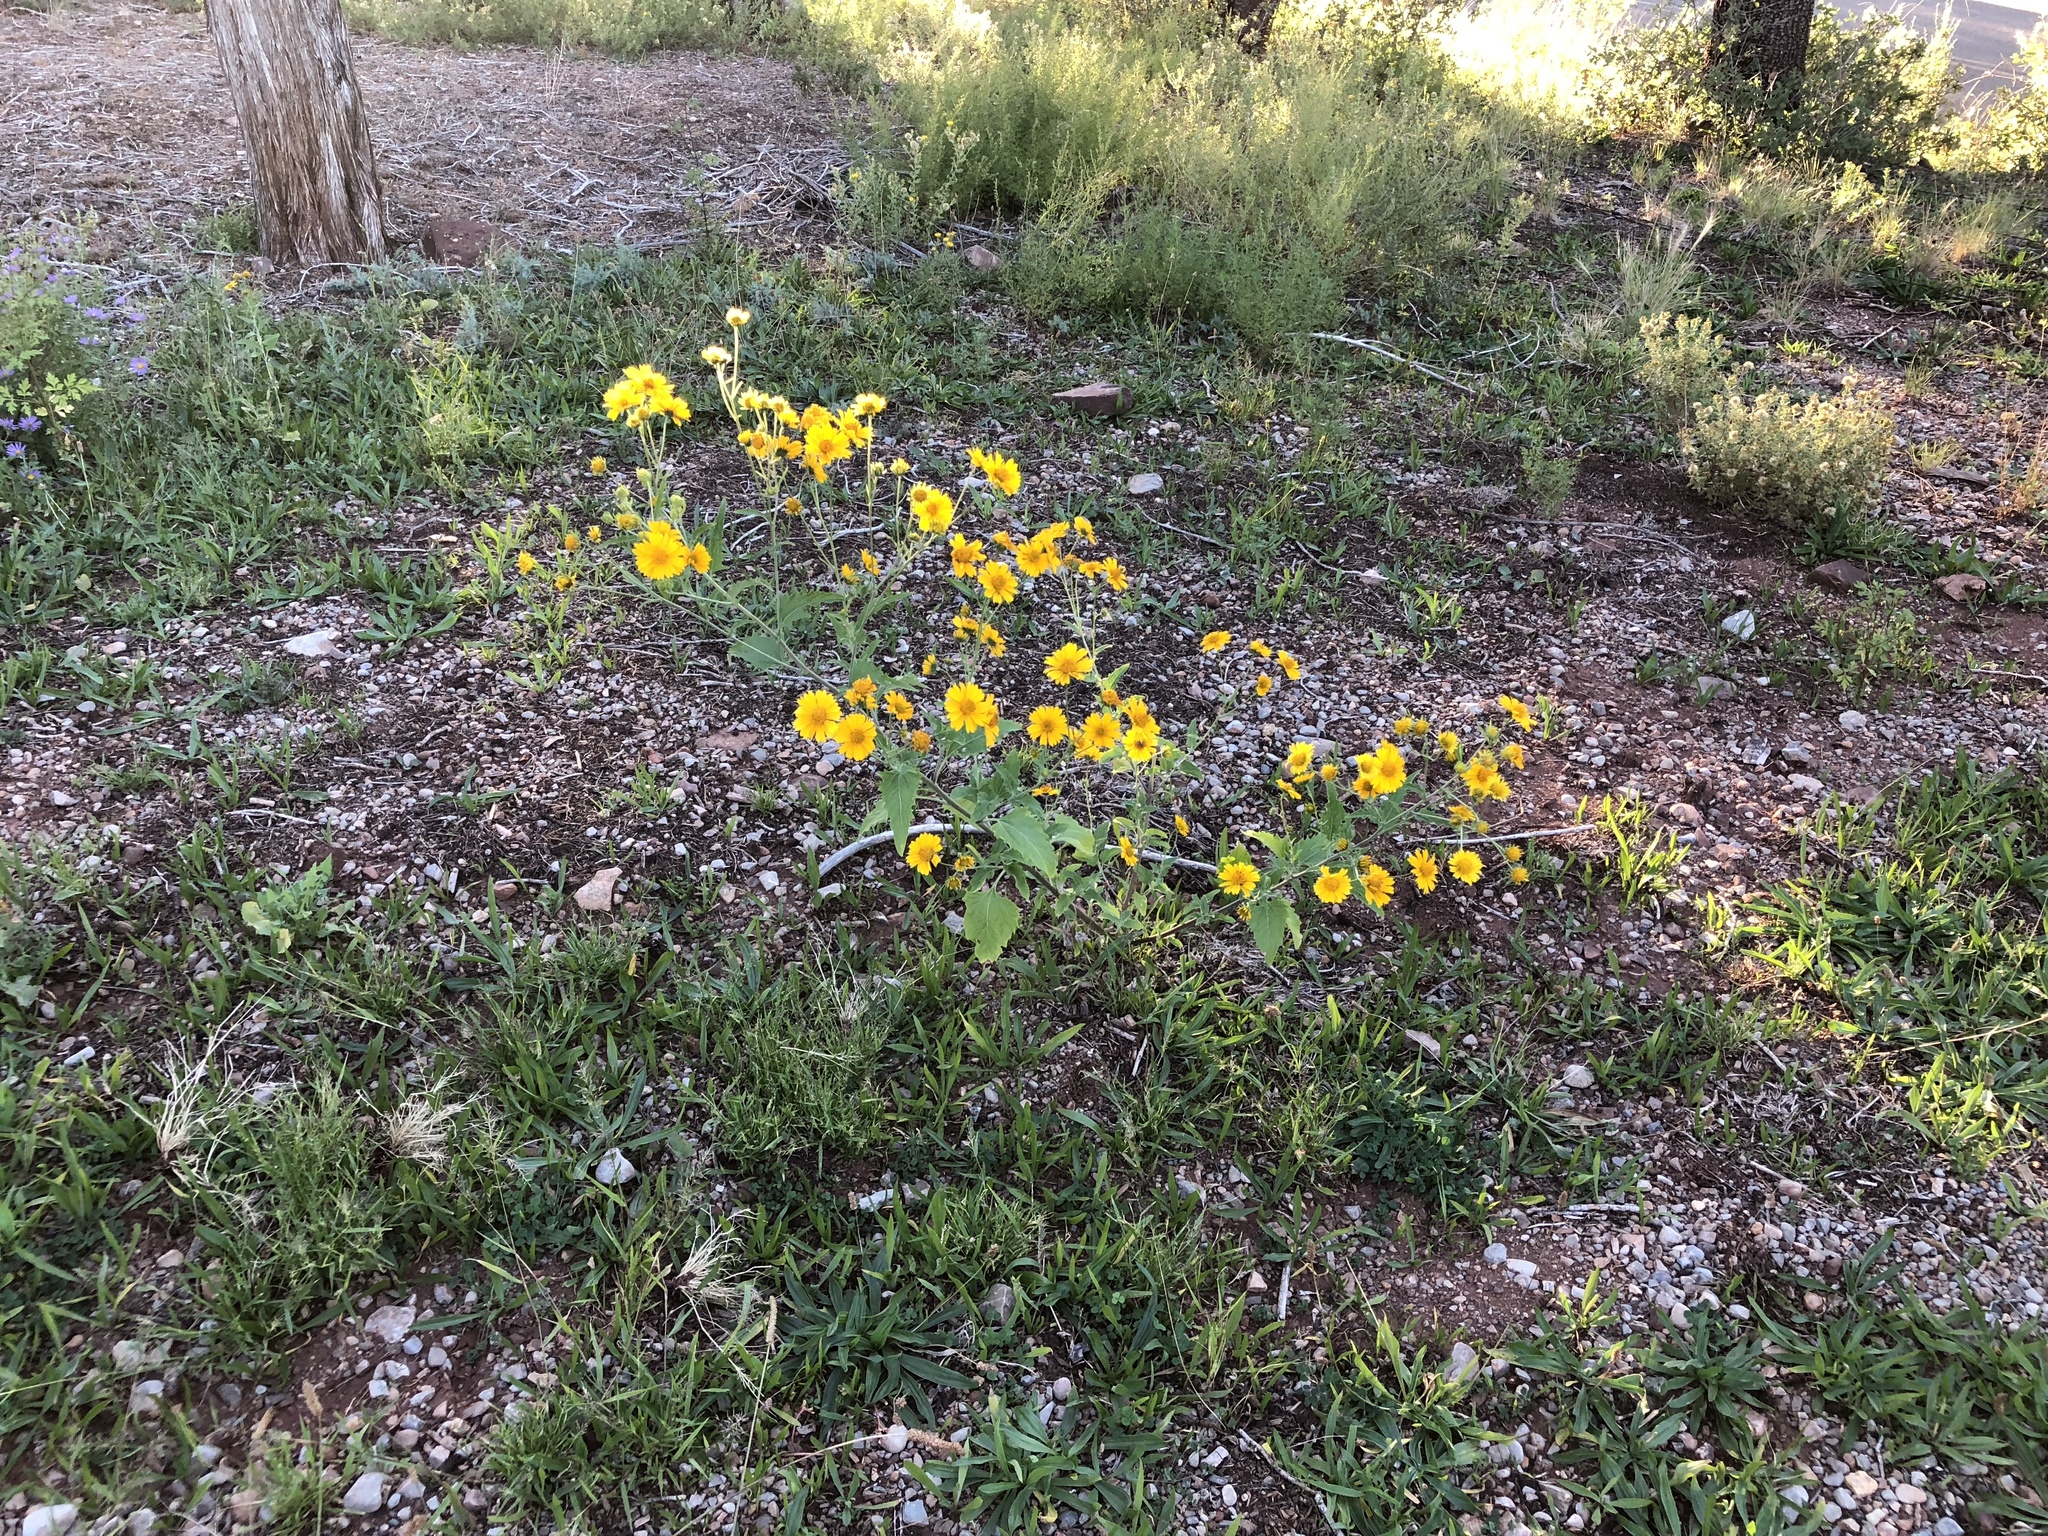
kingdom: Plantae
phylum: Tracheophyta
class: Magnoliopsida
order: Asterales
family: Asteraceae
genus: Verbesina
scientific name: Verbesina encelioides
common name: Golden crownbeard
